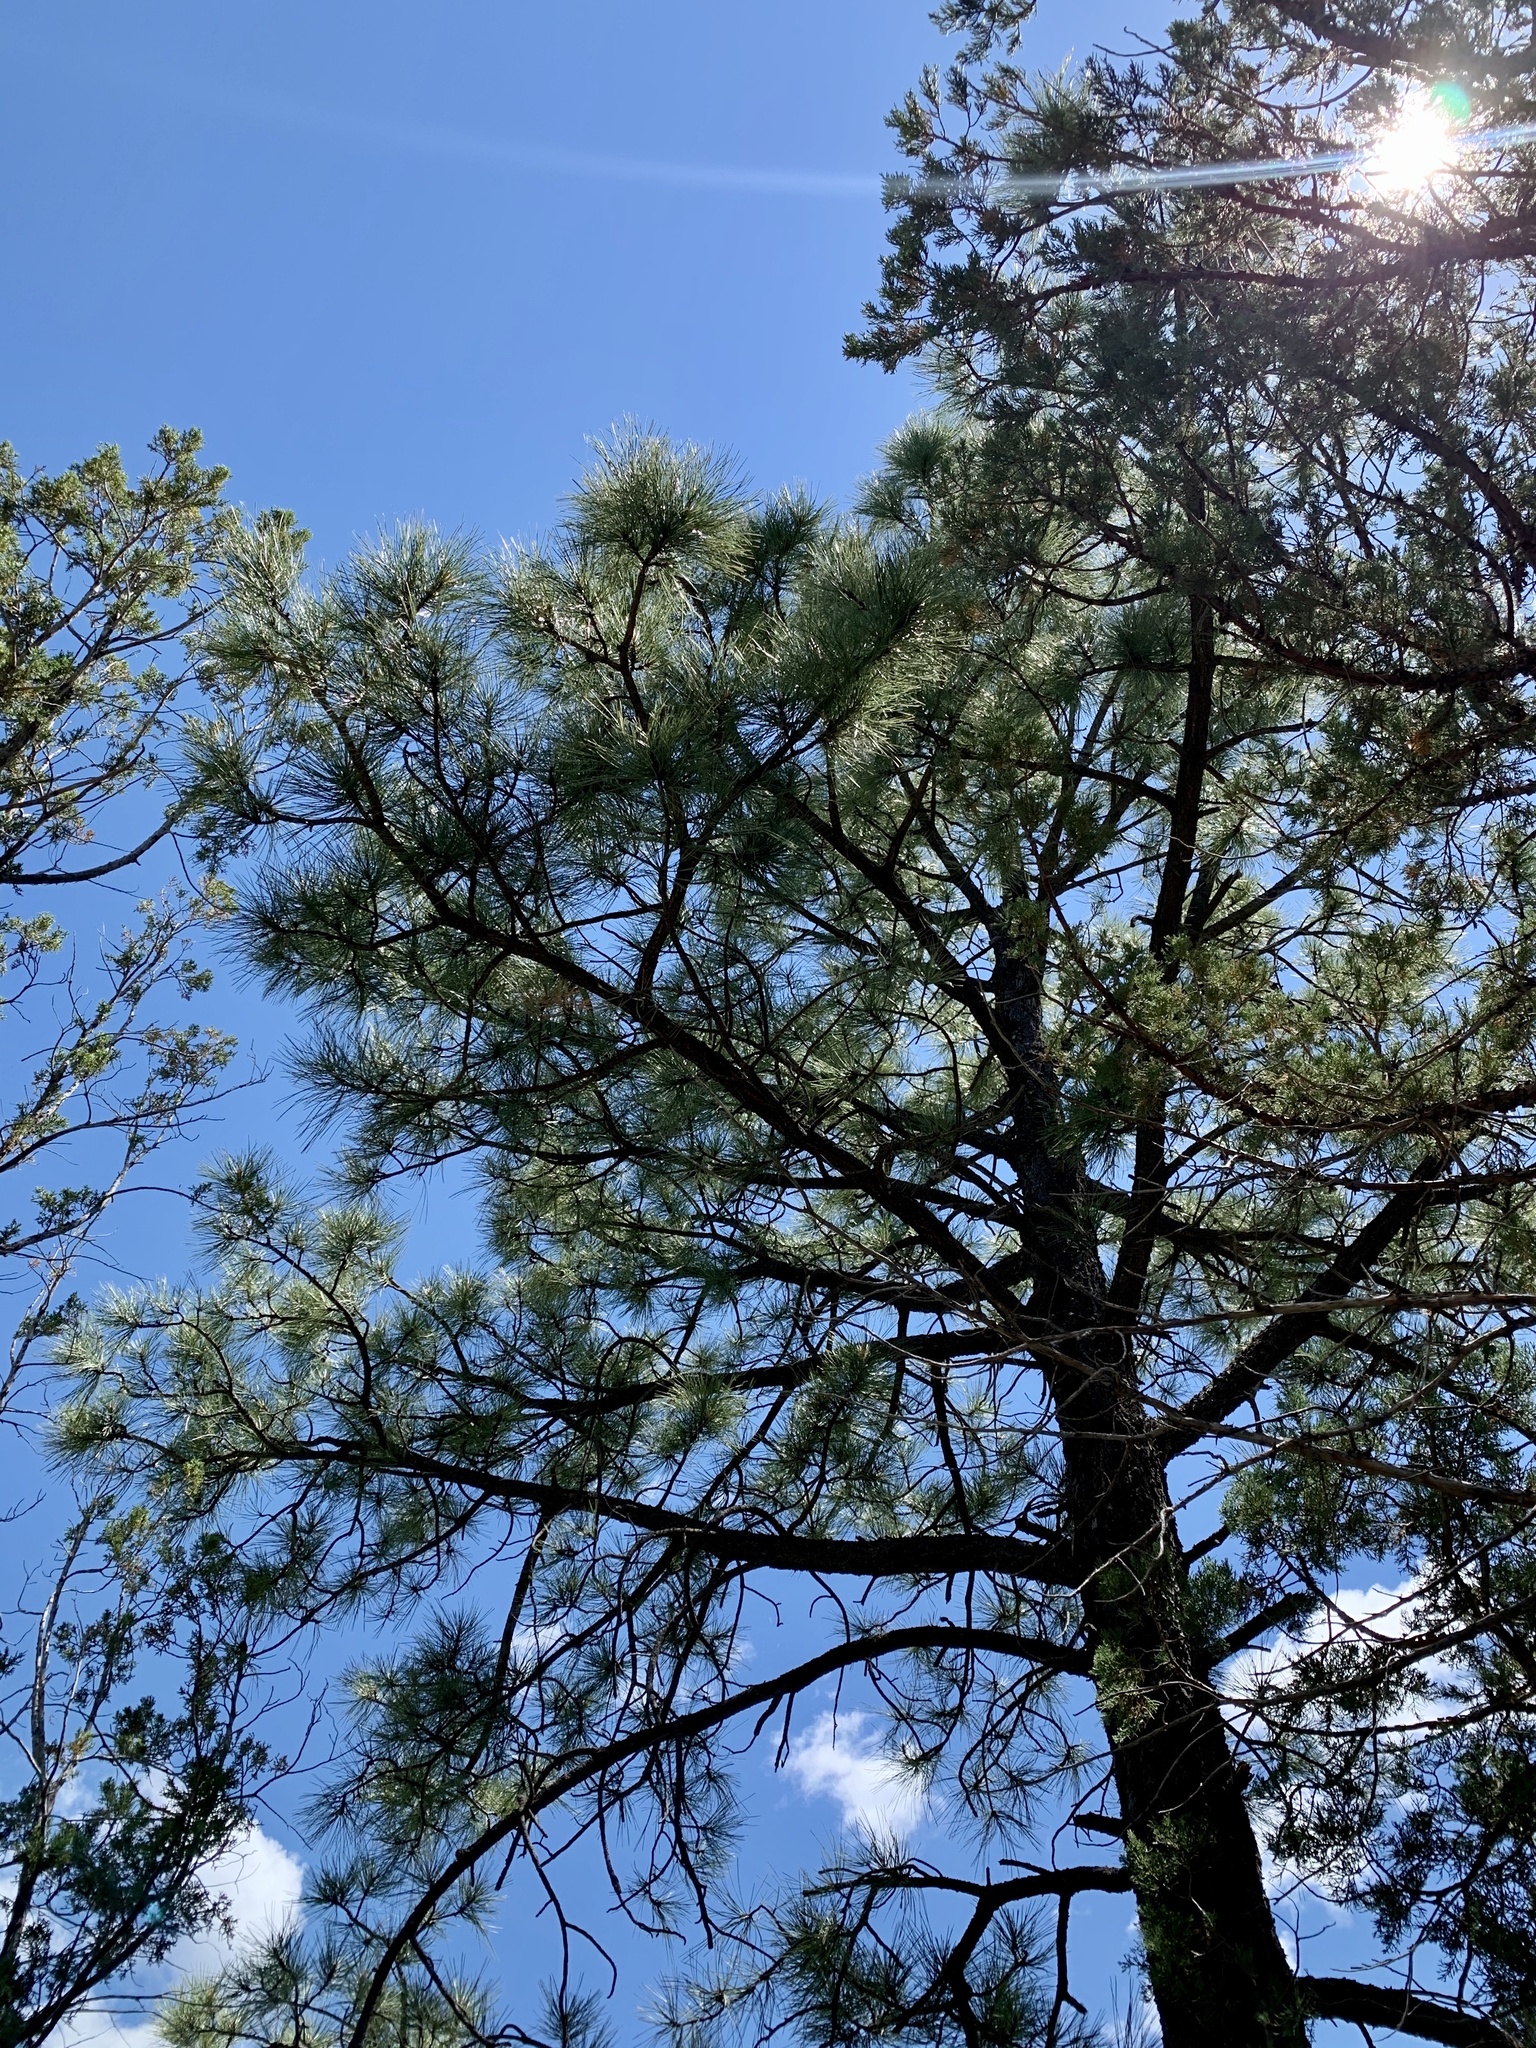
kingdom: Plantae
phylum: Tracheophyta
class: Pinopsida
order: Pinales
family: Pinaceae
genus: Pinus
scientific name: Pinus ponderosa
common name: Western yellow-pine
